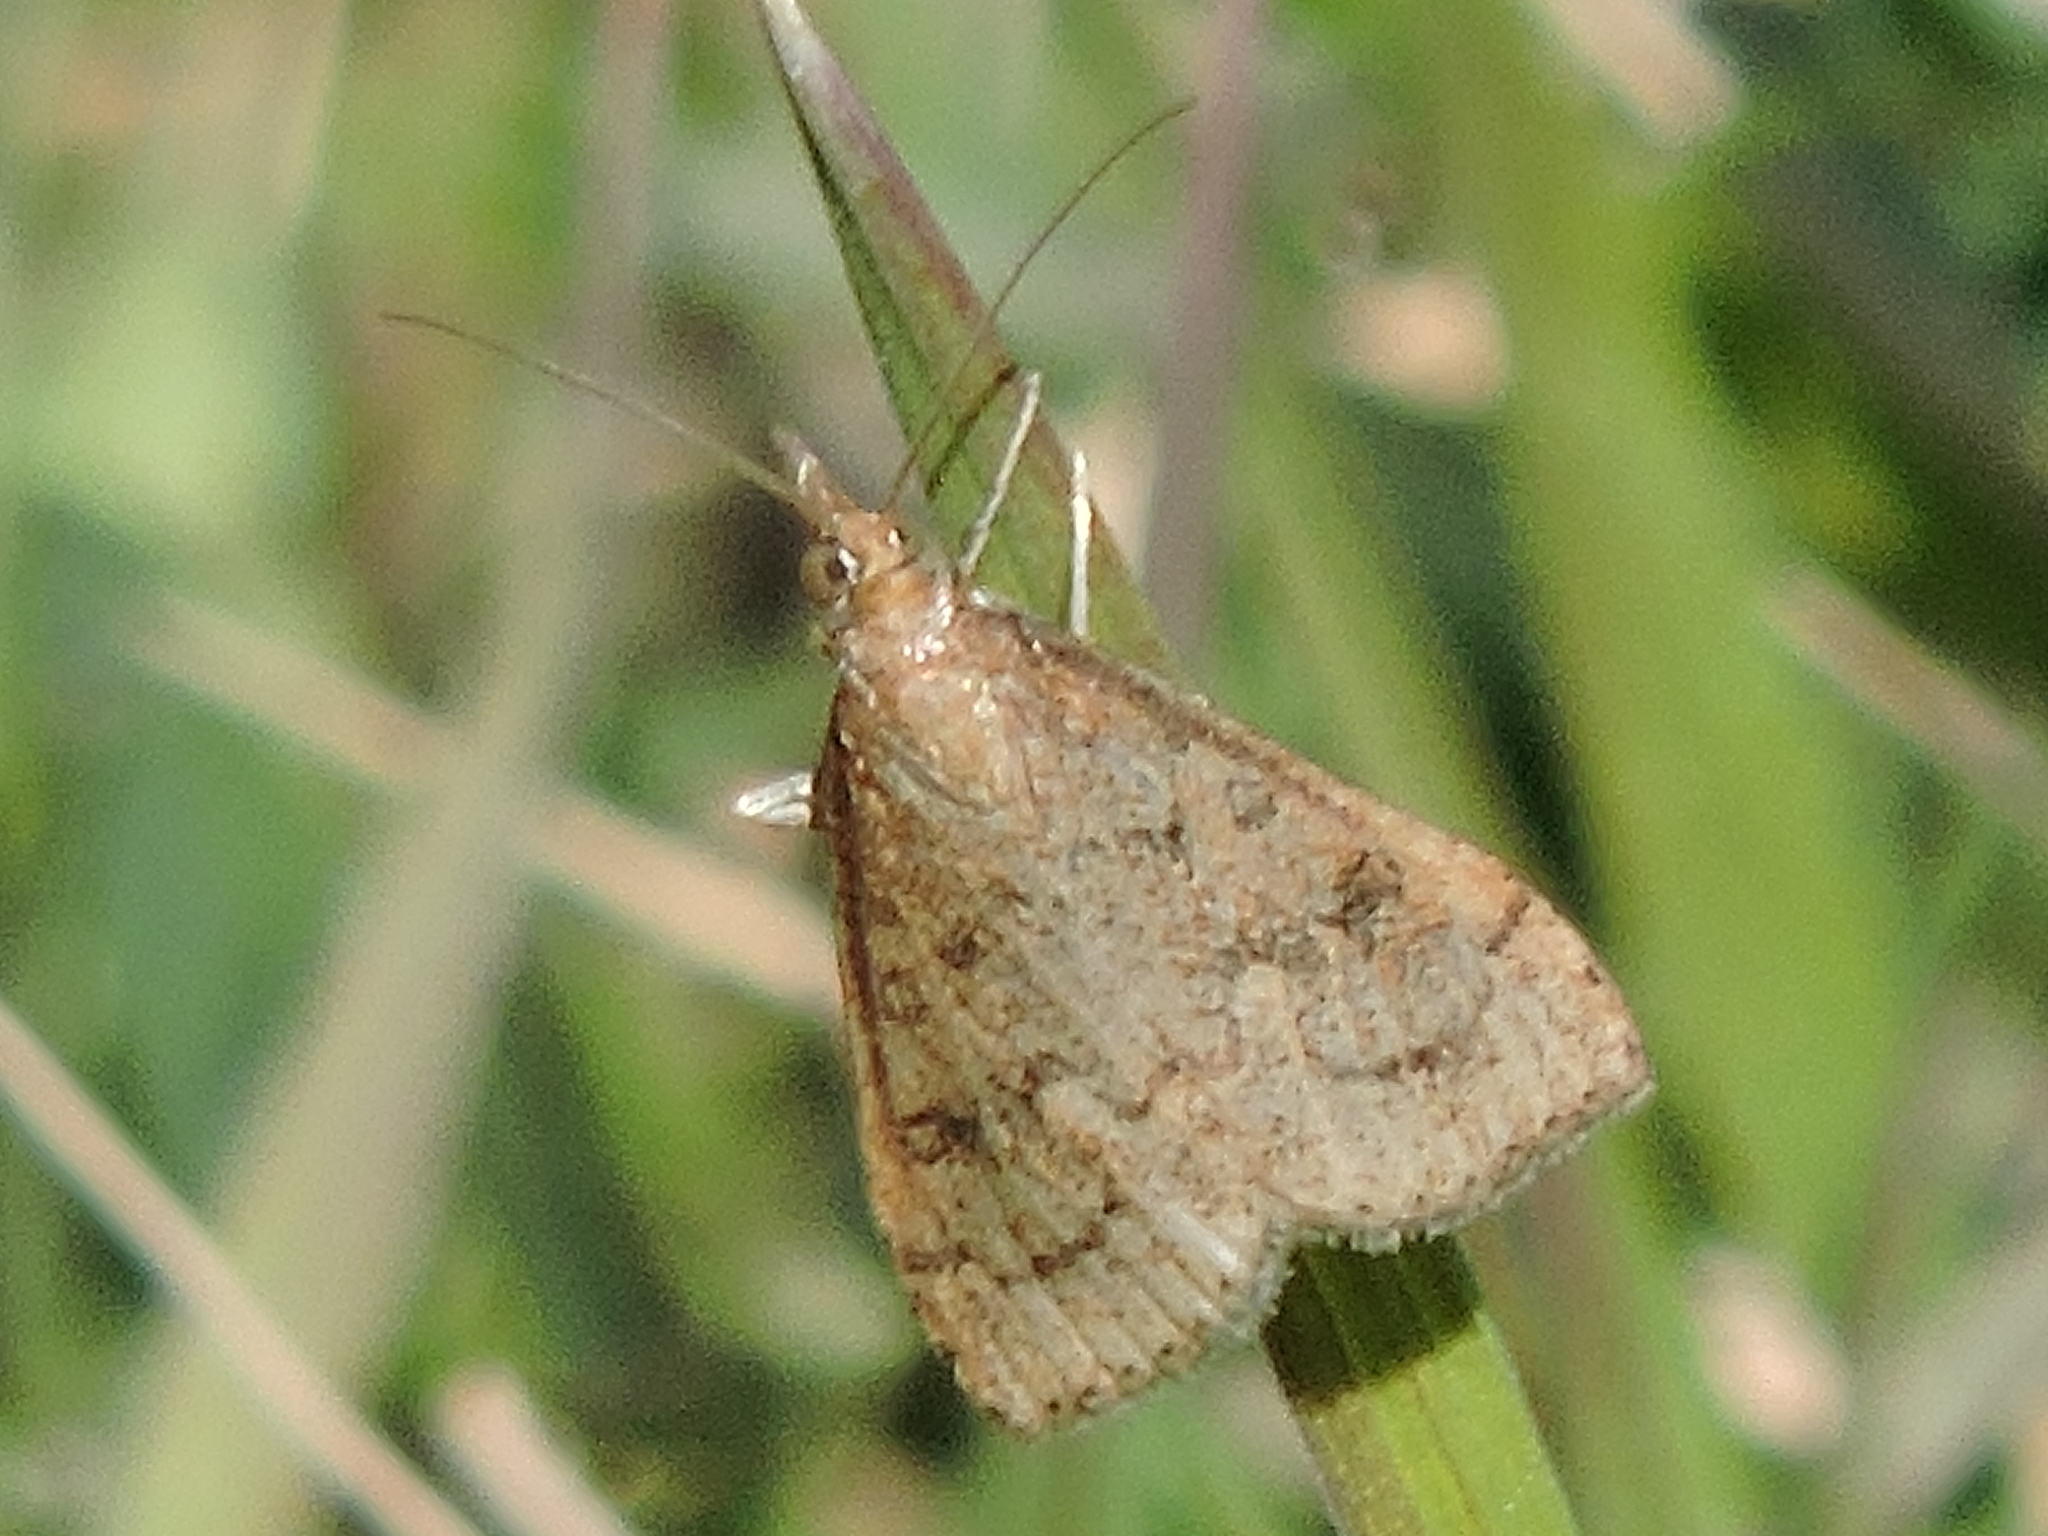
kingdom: Animalia
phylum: Arthropoda
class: Insecta
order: Lepidoptera
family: Crambidae
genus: Udea
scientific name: Udea rubigalis
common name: Celery leaftier moth
